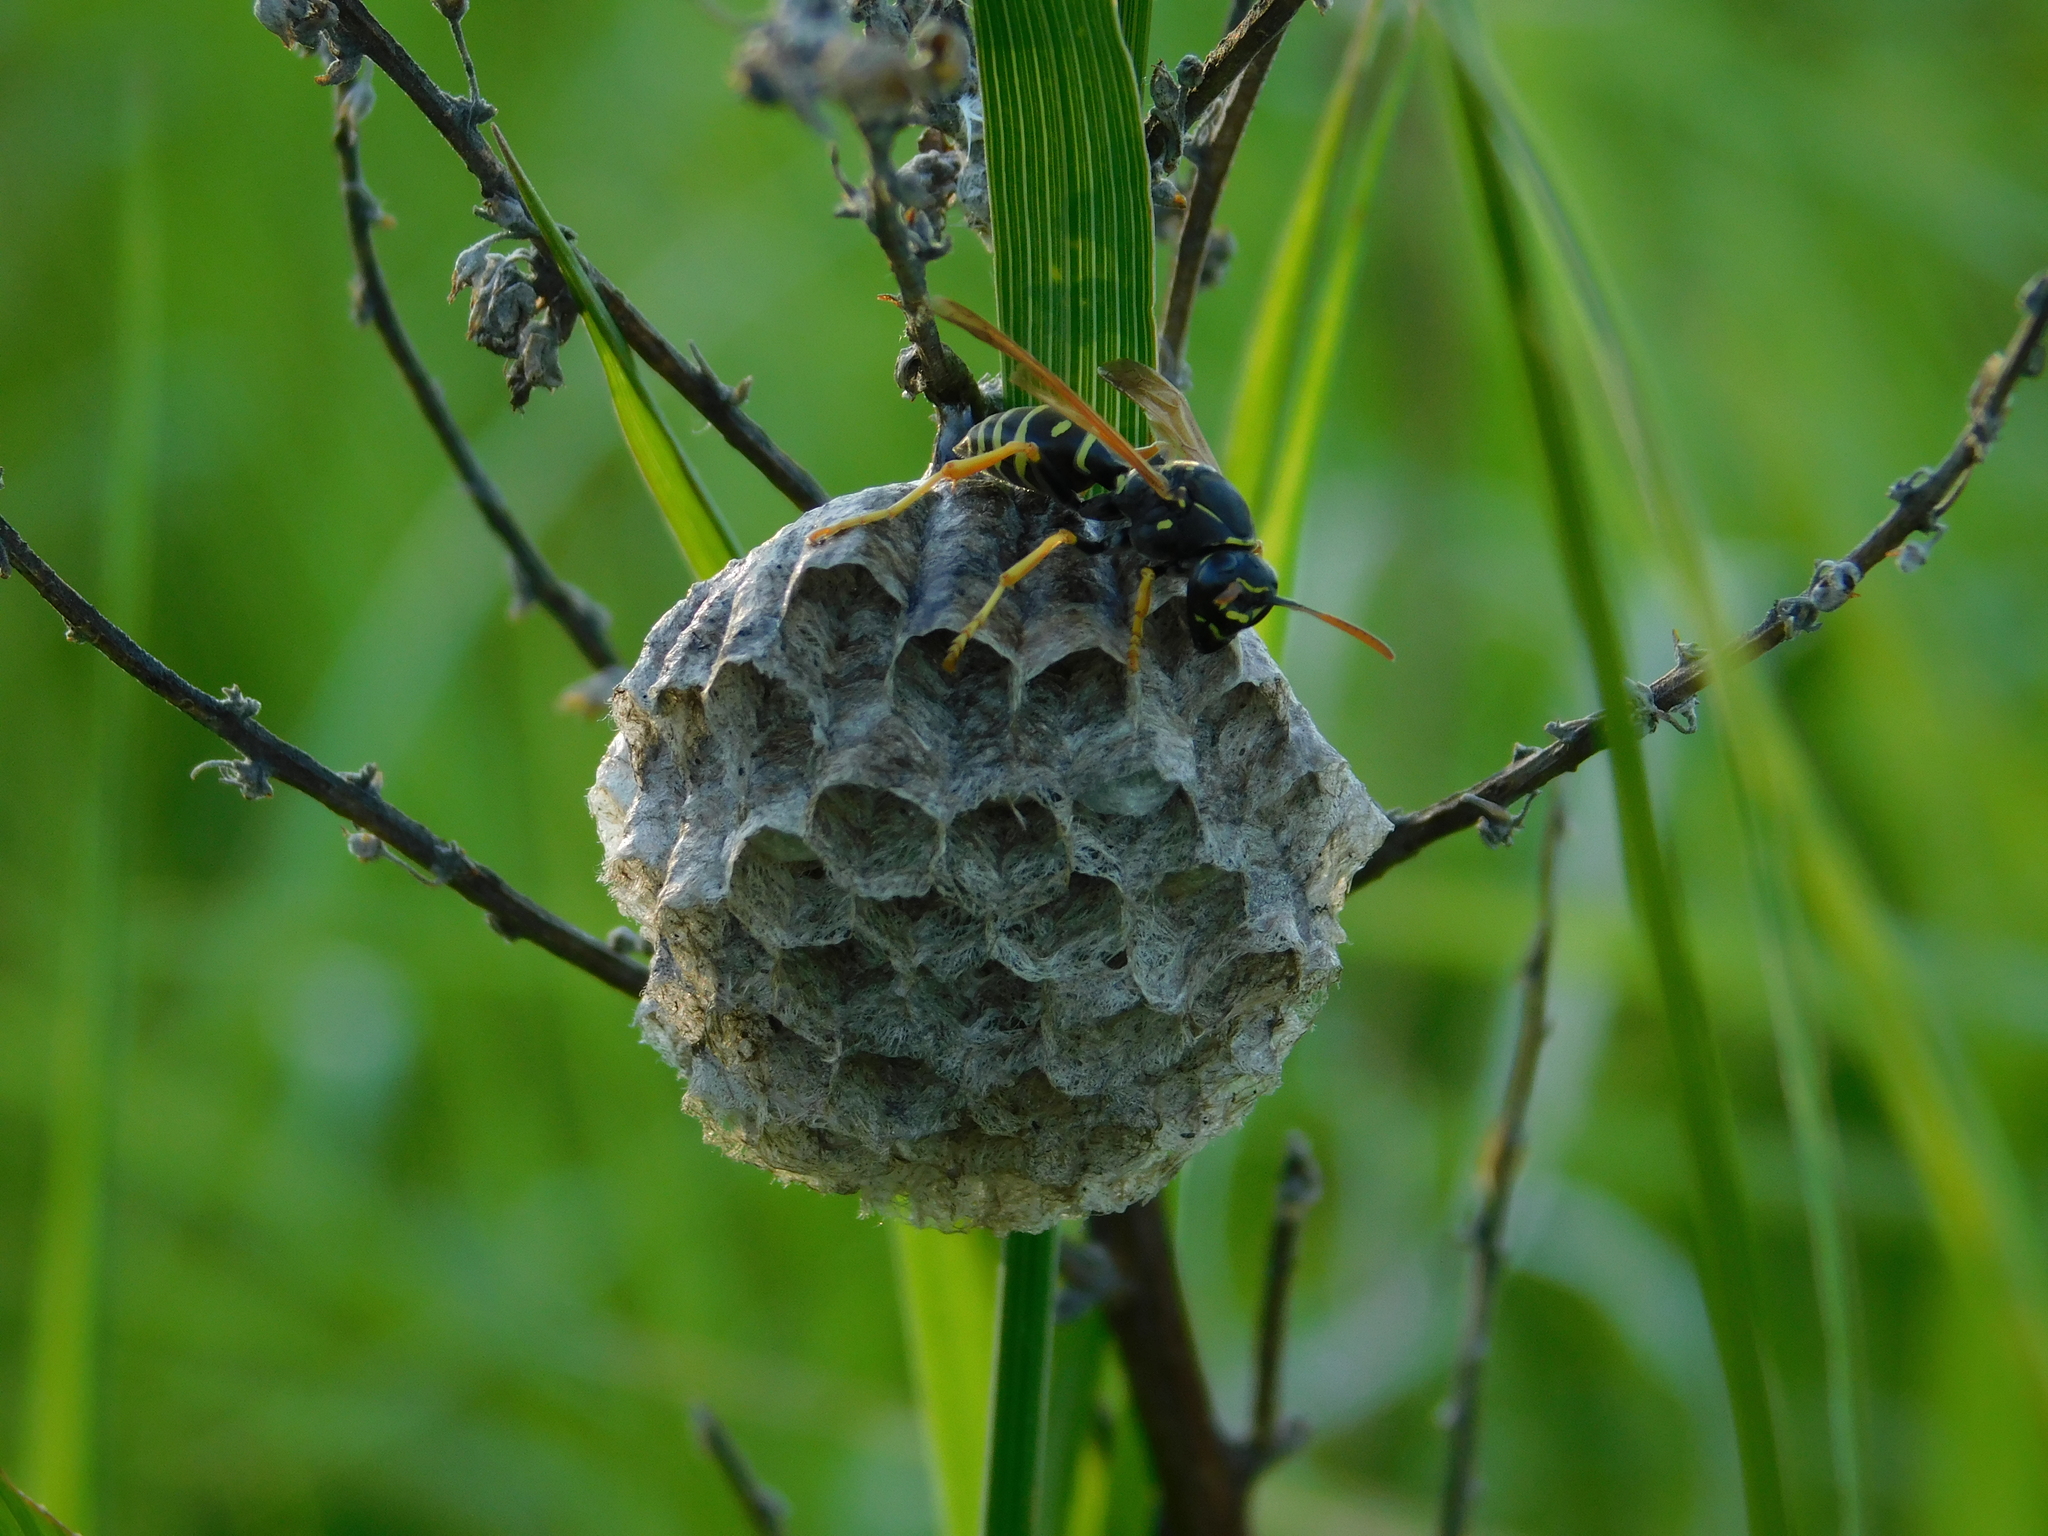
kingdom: Animalia
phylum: Arthropoda
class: Insecta
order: Hymenoptera
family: Eumenidae
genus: Polistes
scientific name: Polistes nimpha
